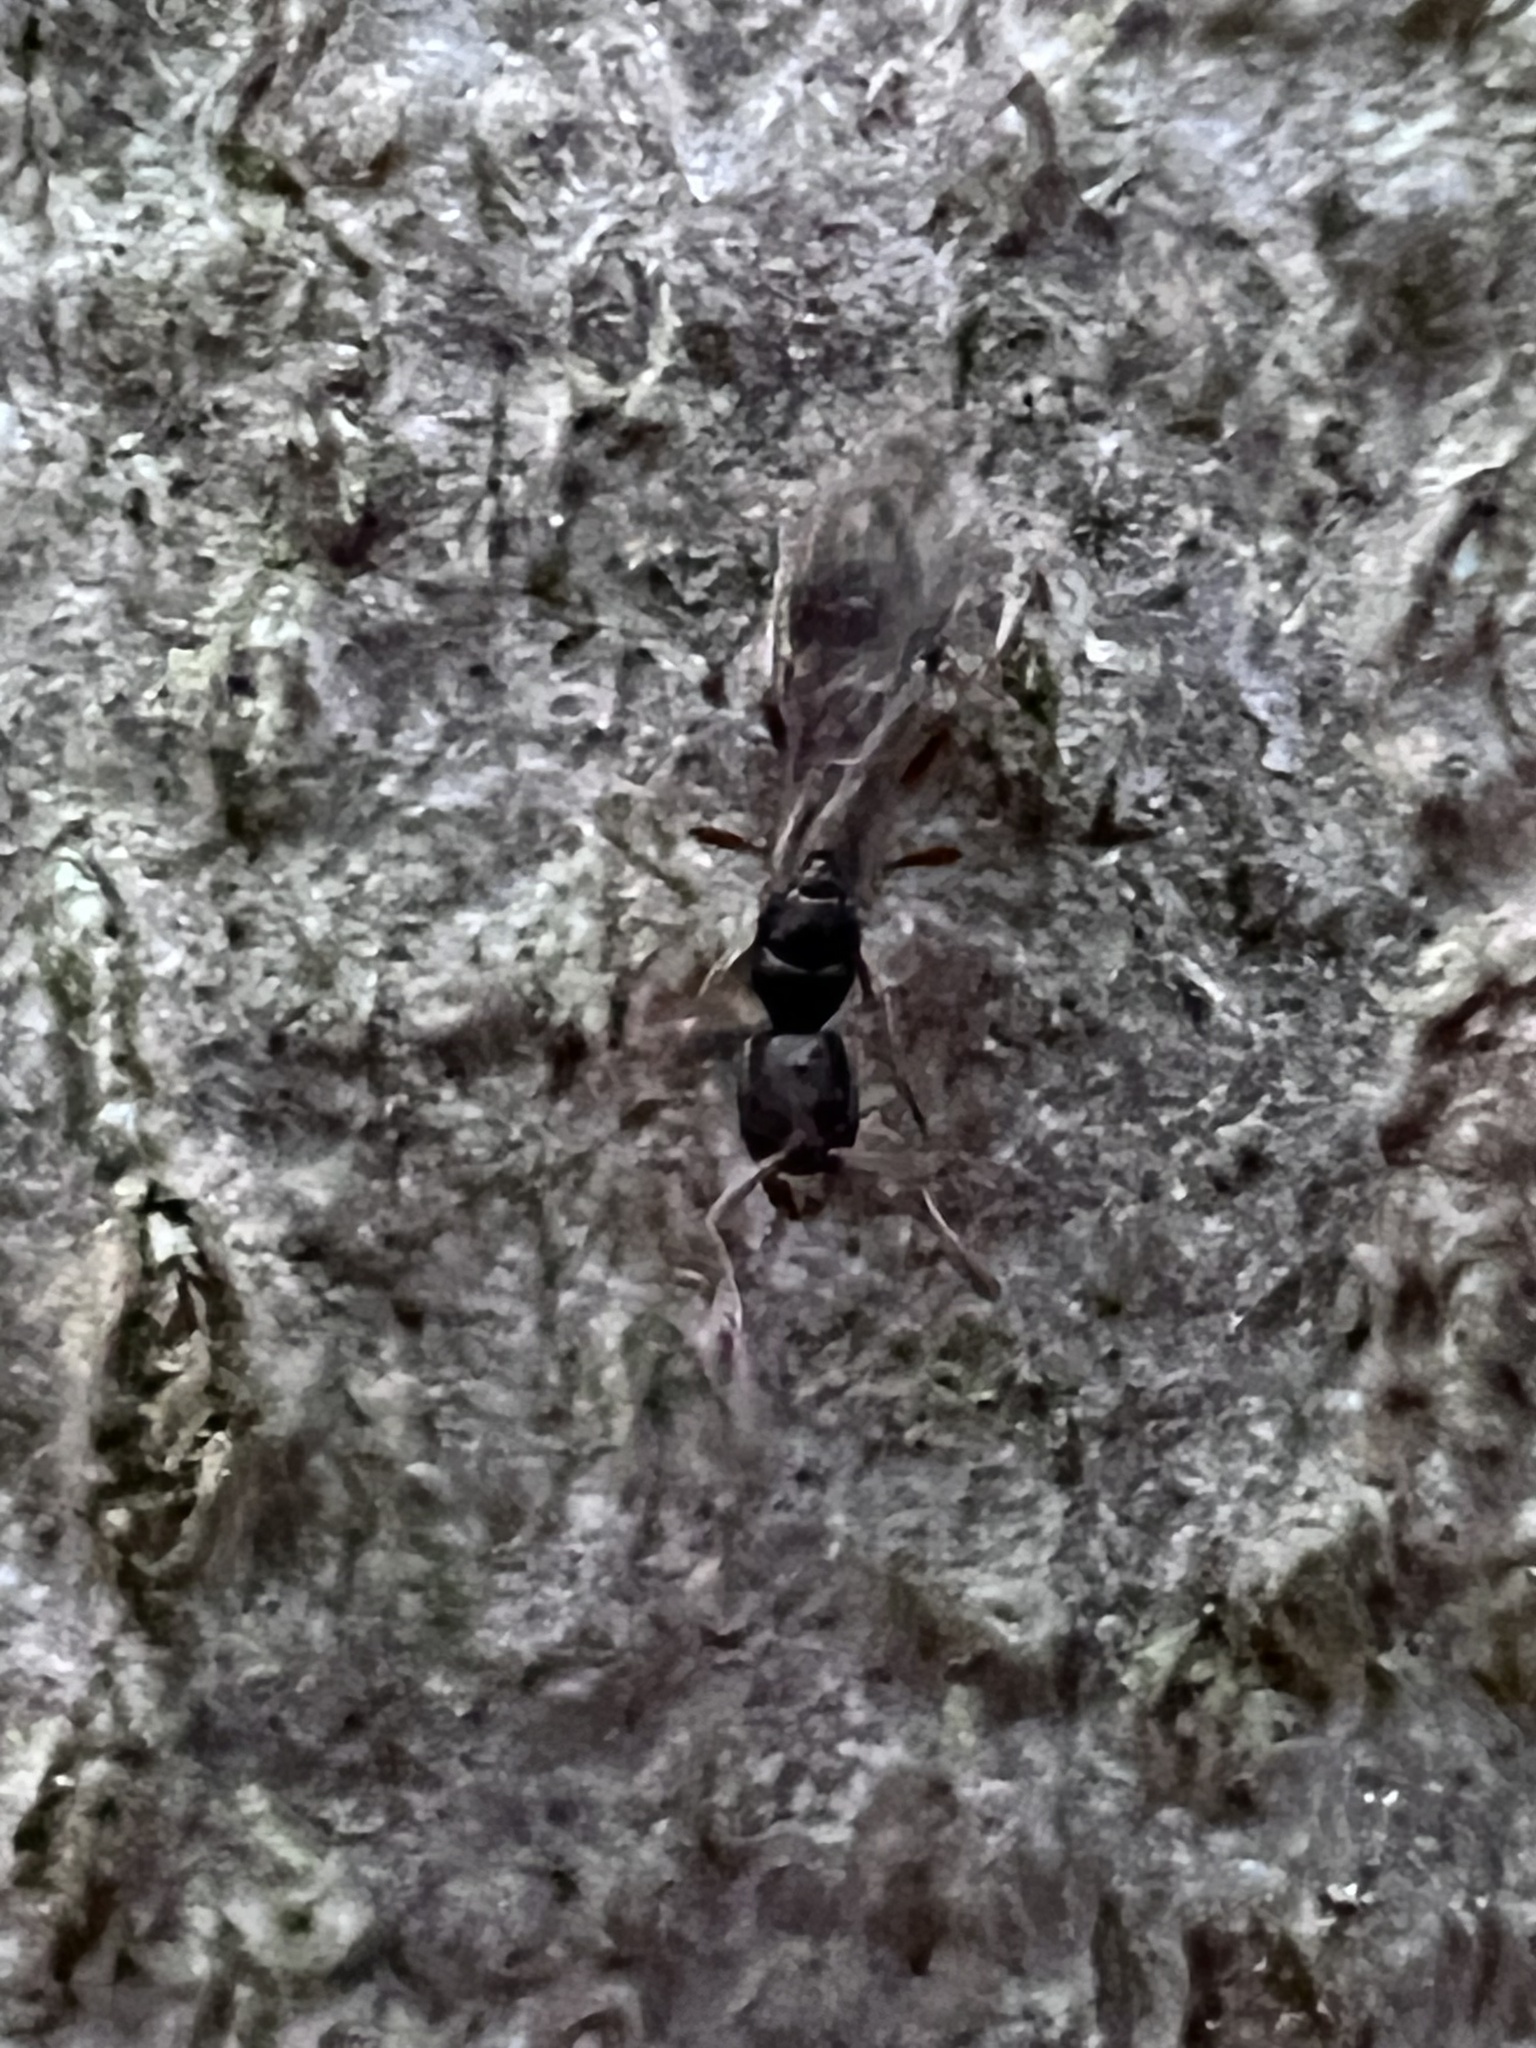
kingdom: Animalia
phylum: Arthropoda
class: Insecta
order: Hymenoptera
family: Formicidae
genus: Ponera
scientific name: Ponera pennsylvanica
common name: Pennsylvania ponera
